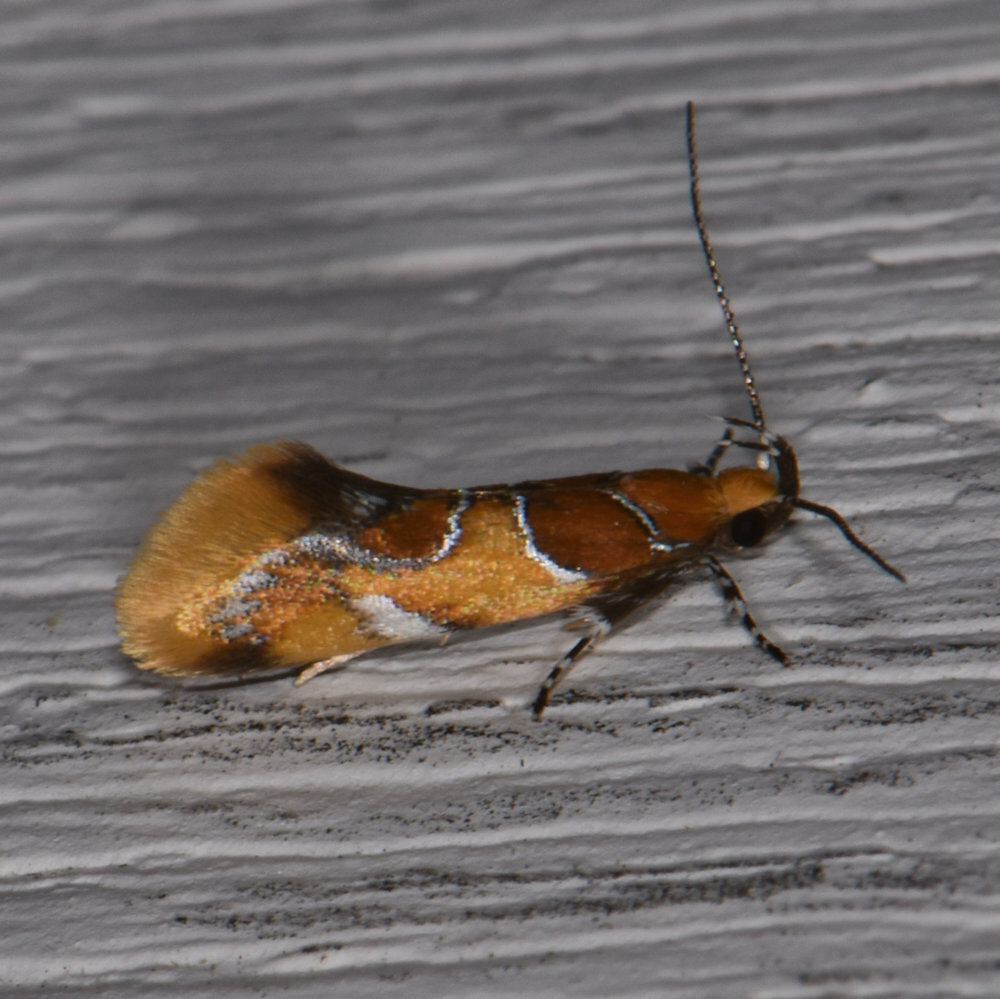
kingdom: Animalia
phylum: Arthropoda
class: Insecta
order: Lepidoptera
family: Oecophoridae
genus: Callima
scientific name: Callima argenticinctella
